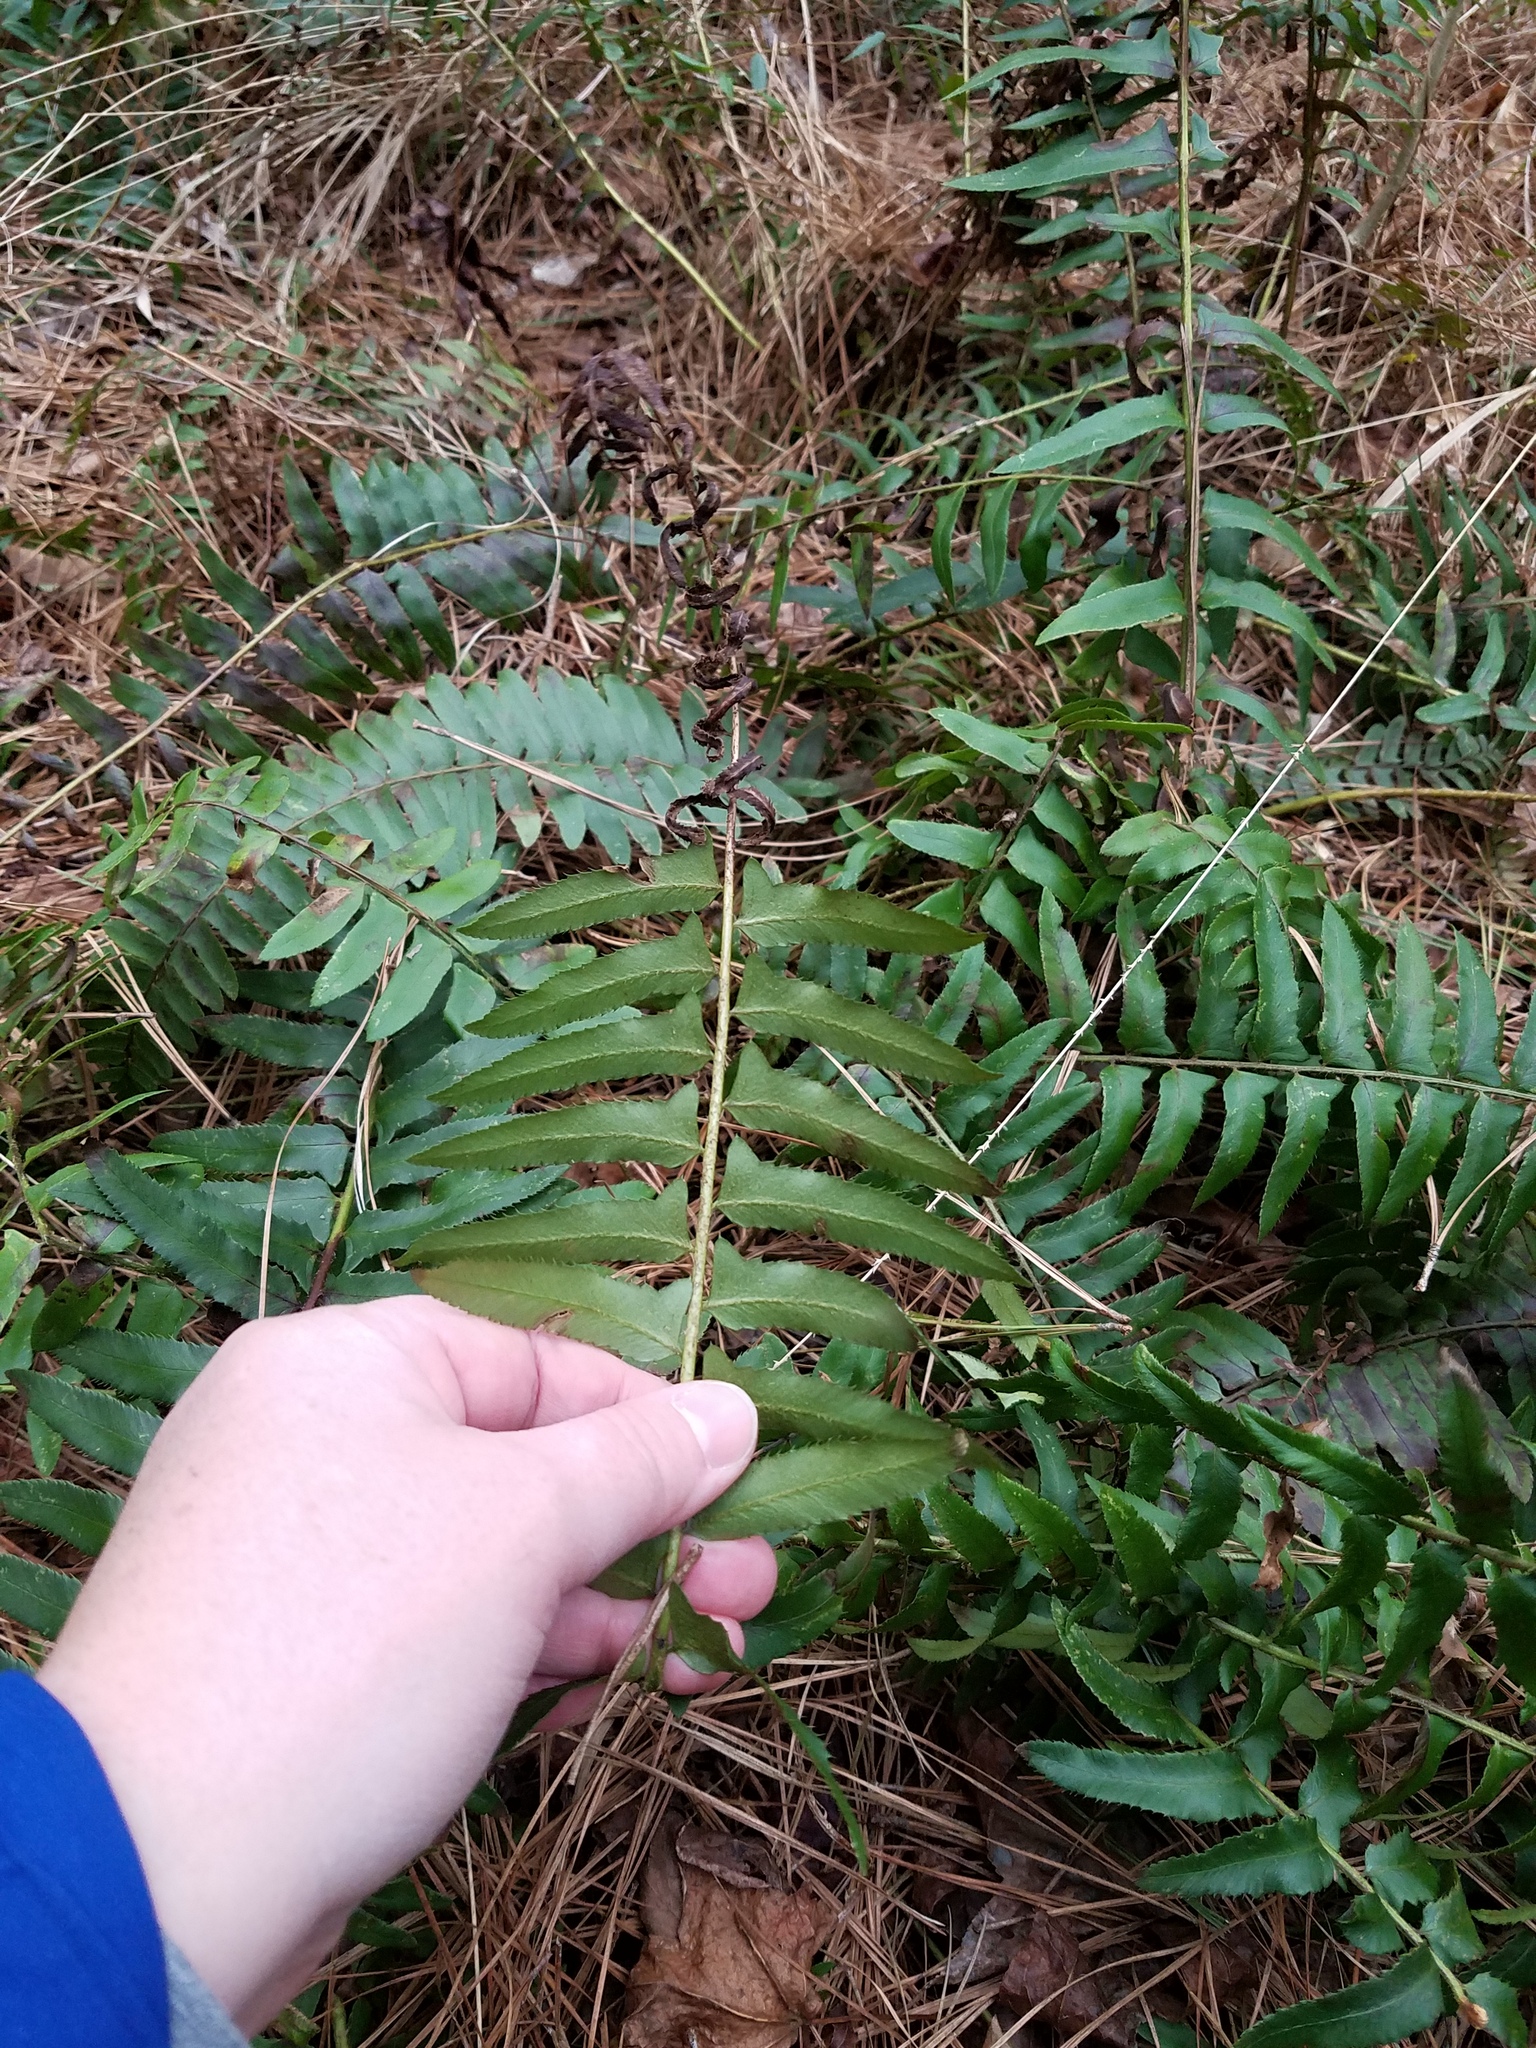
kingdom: Plantae
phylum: Tracheophyta
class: Polypodiopsida
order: Polypodiales
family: Dryopteridaceae
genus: Polystichum
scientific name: Polystichum acrostichoides
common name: Christmas fern
